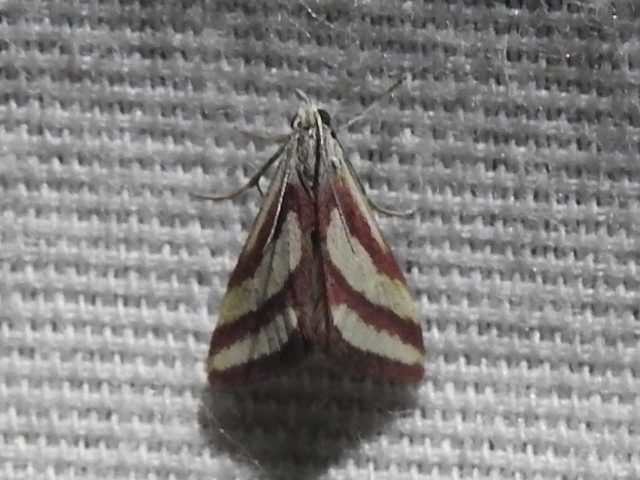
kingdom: Animalia
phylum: Arthropoda
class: Insecta
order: Lepidoptera
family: Crambidae
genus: Microtheoris
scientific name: Microtheoris vibicalis
